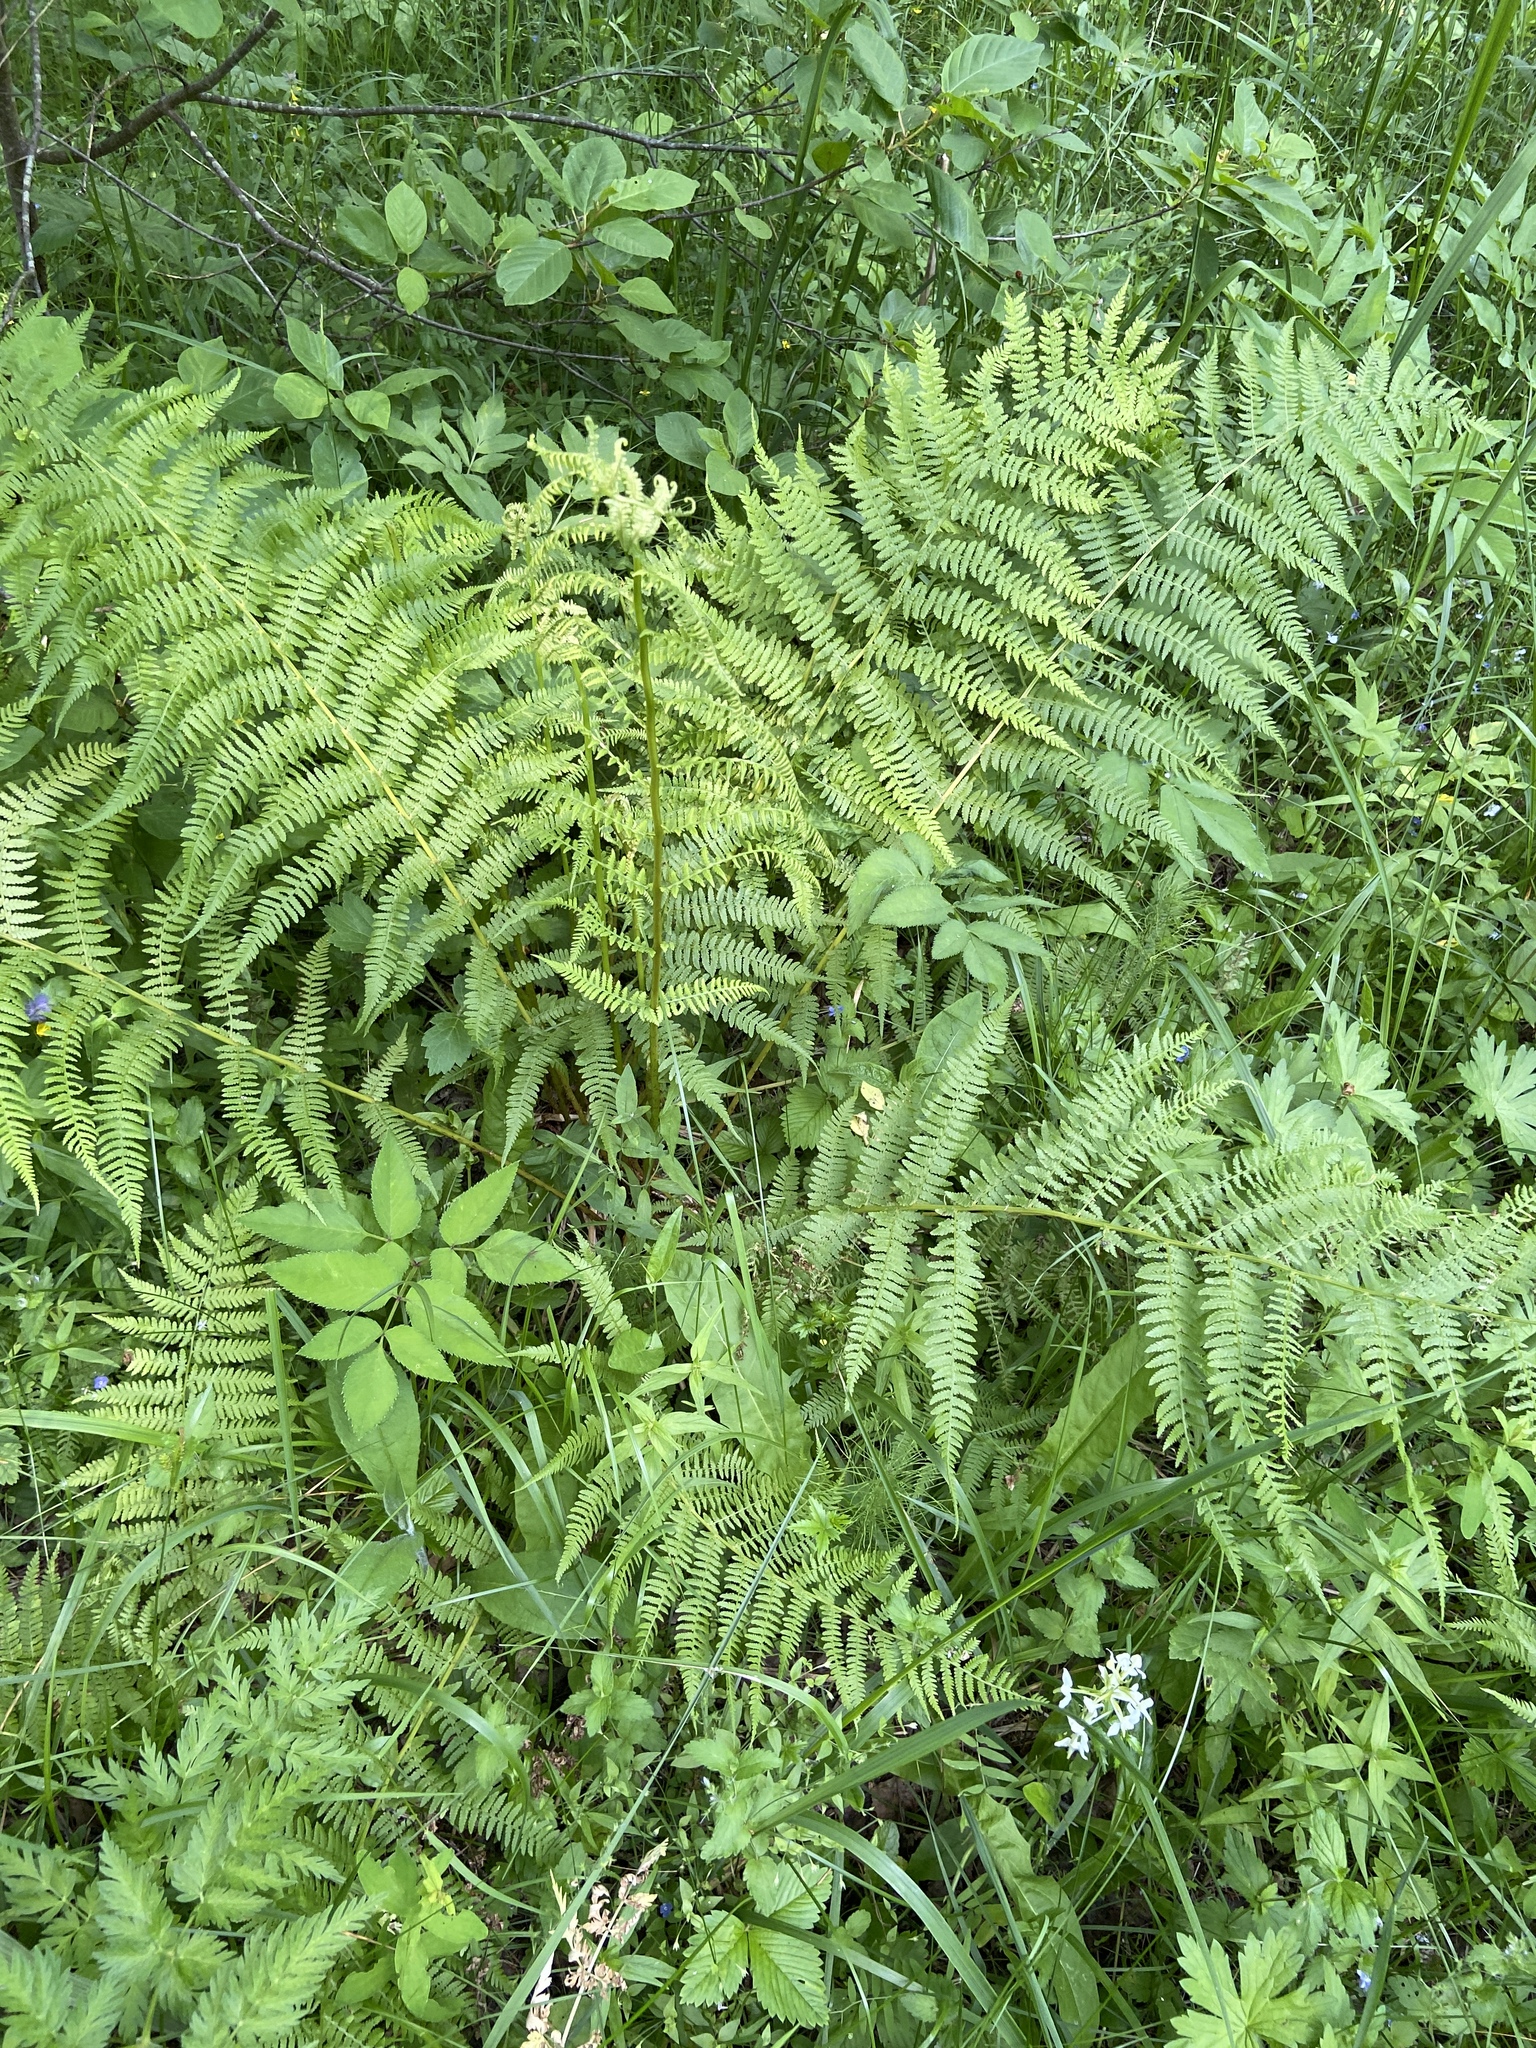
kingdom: Plantae
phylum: Tracheophyta
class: Polypodiopsida
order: Polypodiales
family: Athyriaceae
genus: Athyrium
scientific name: Athyrium filix-femina
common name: Lady fern
